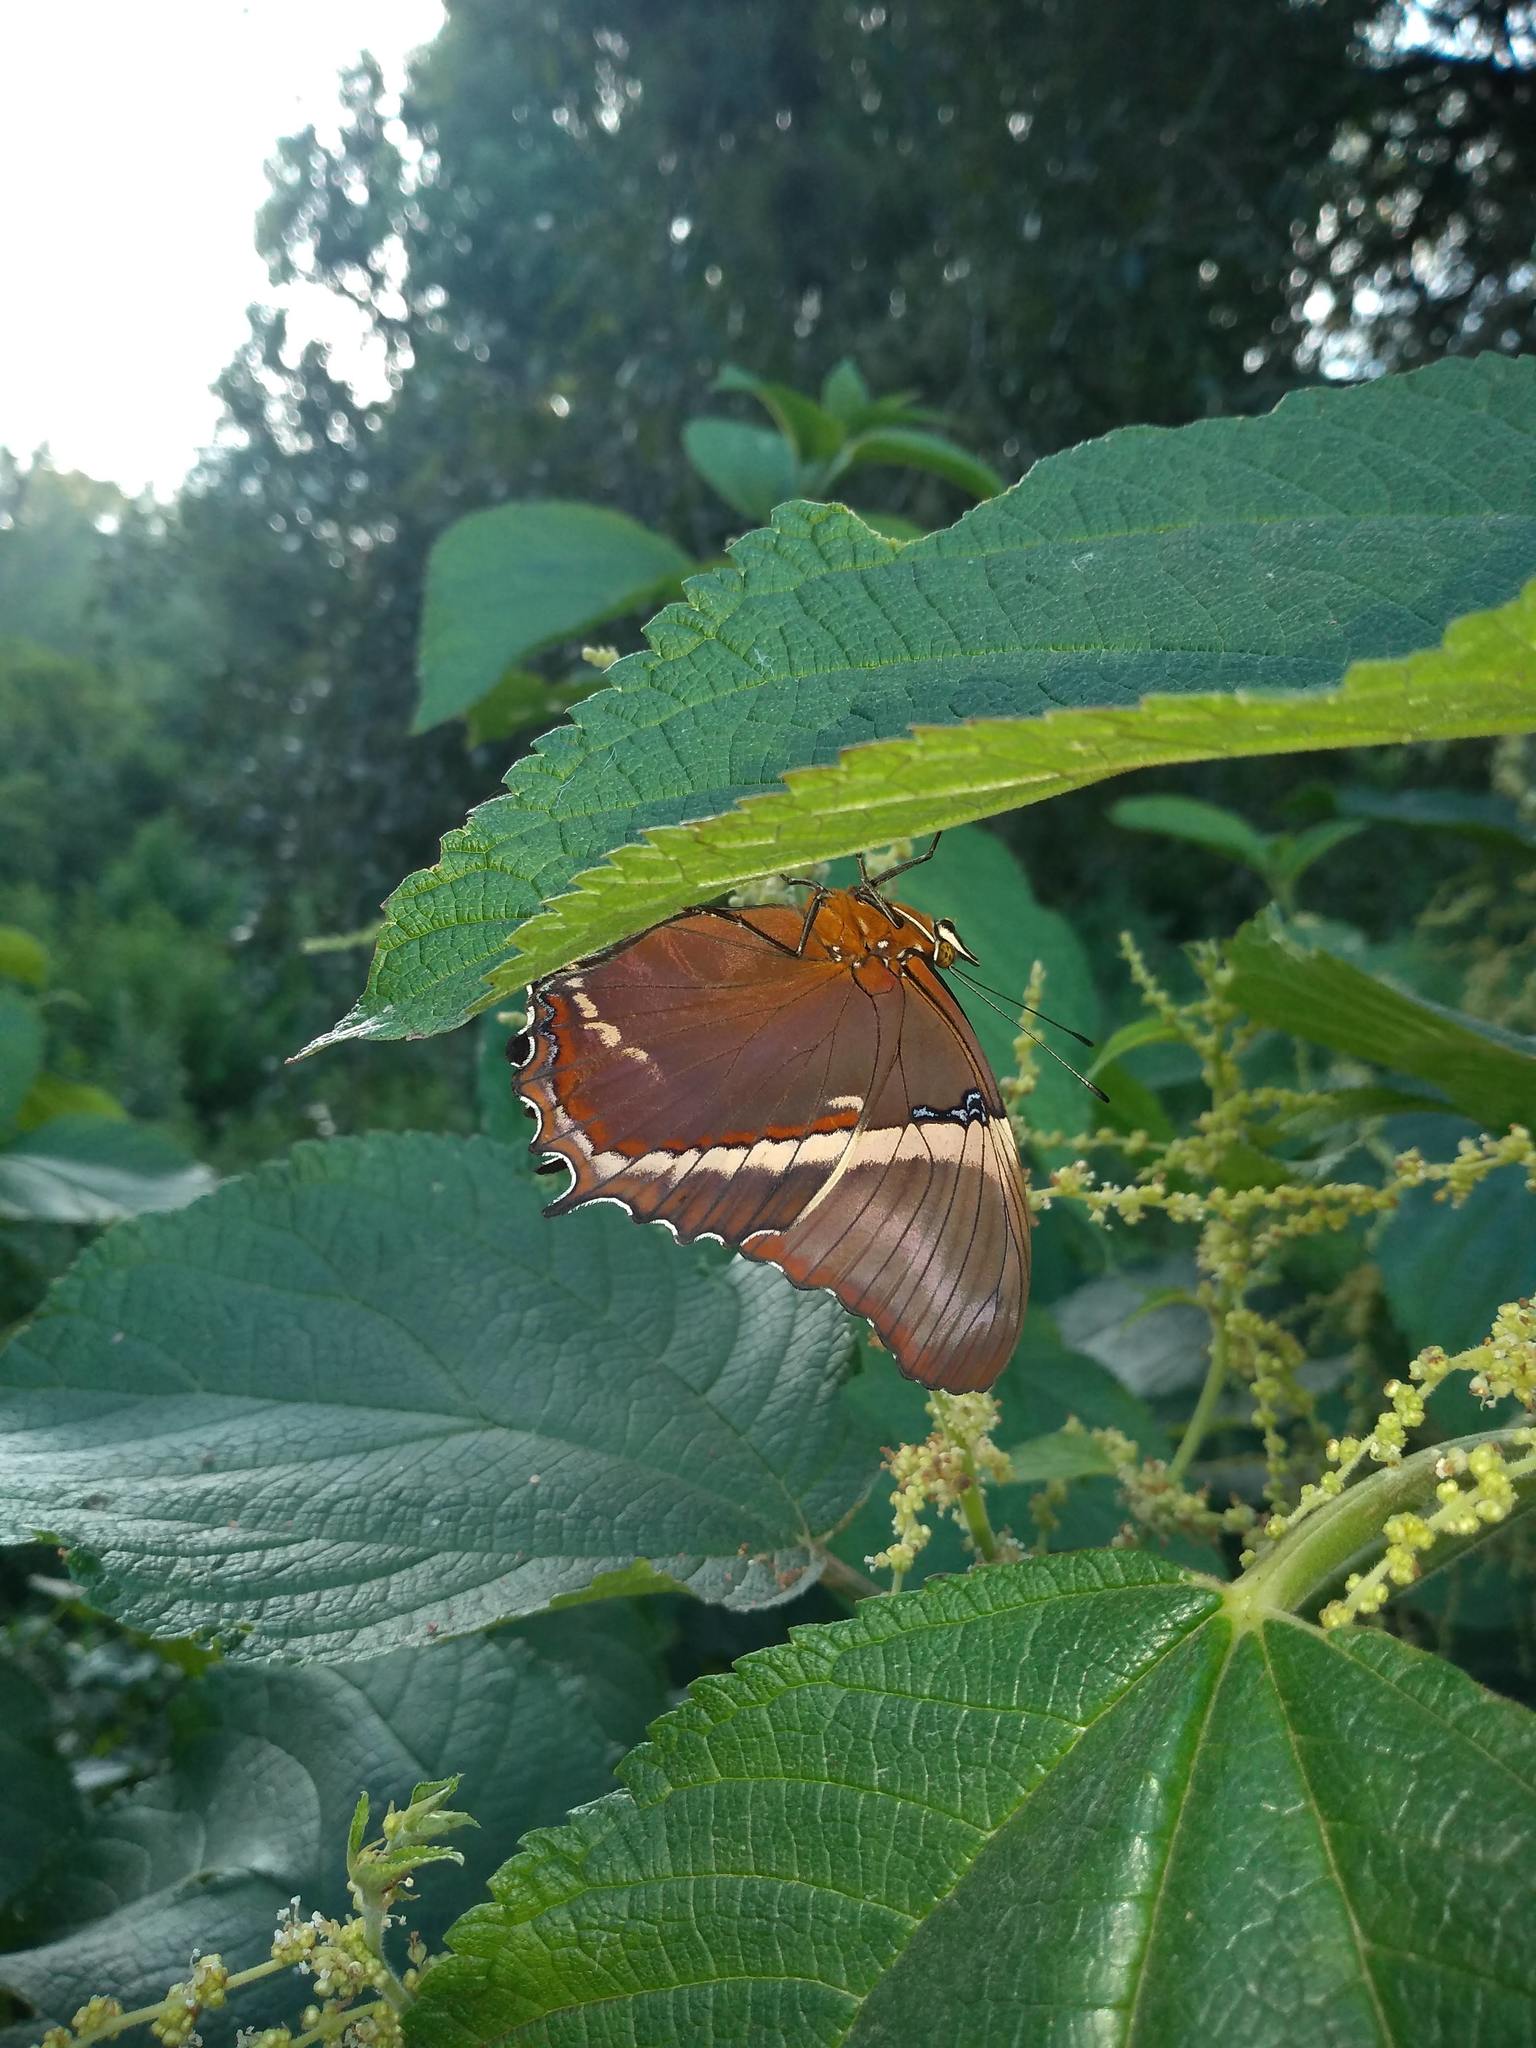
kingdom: Animalia
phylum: Arthropoda
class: Insecta
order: Lepidoptera
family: Nymphalidae
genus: Siproeta
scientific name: Siproeta epaphus
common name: Rusty-tipped page
